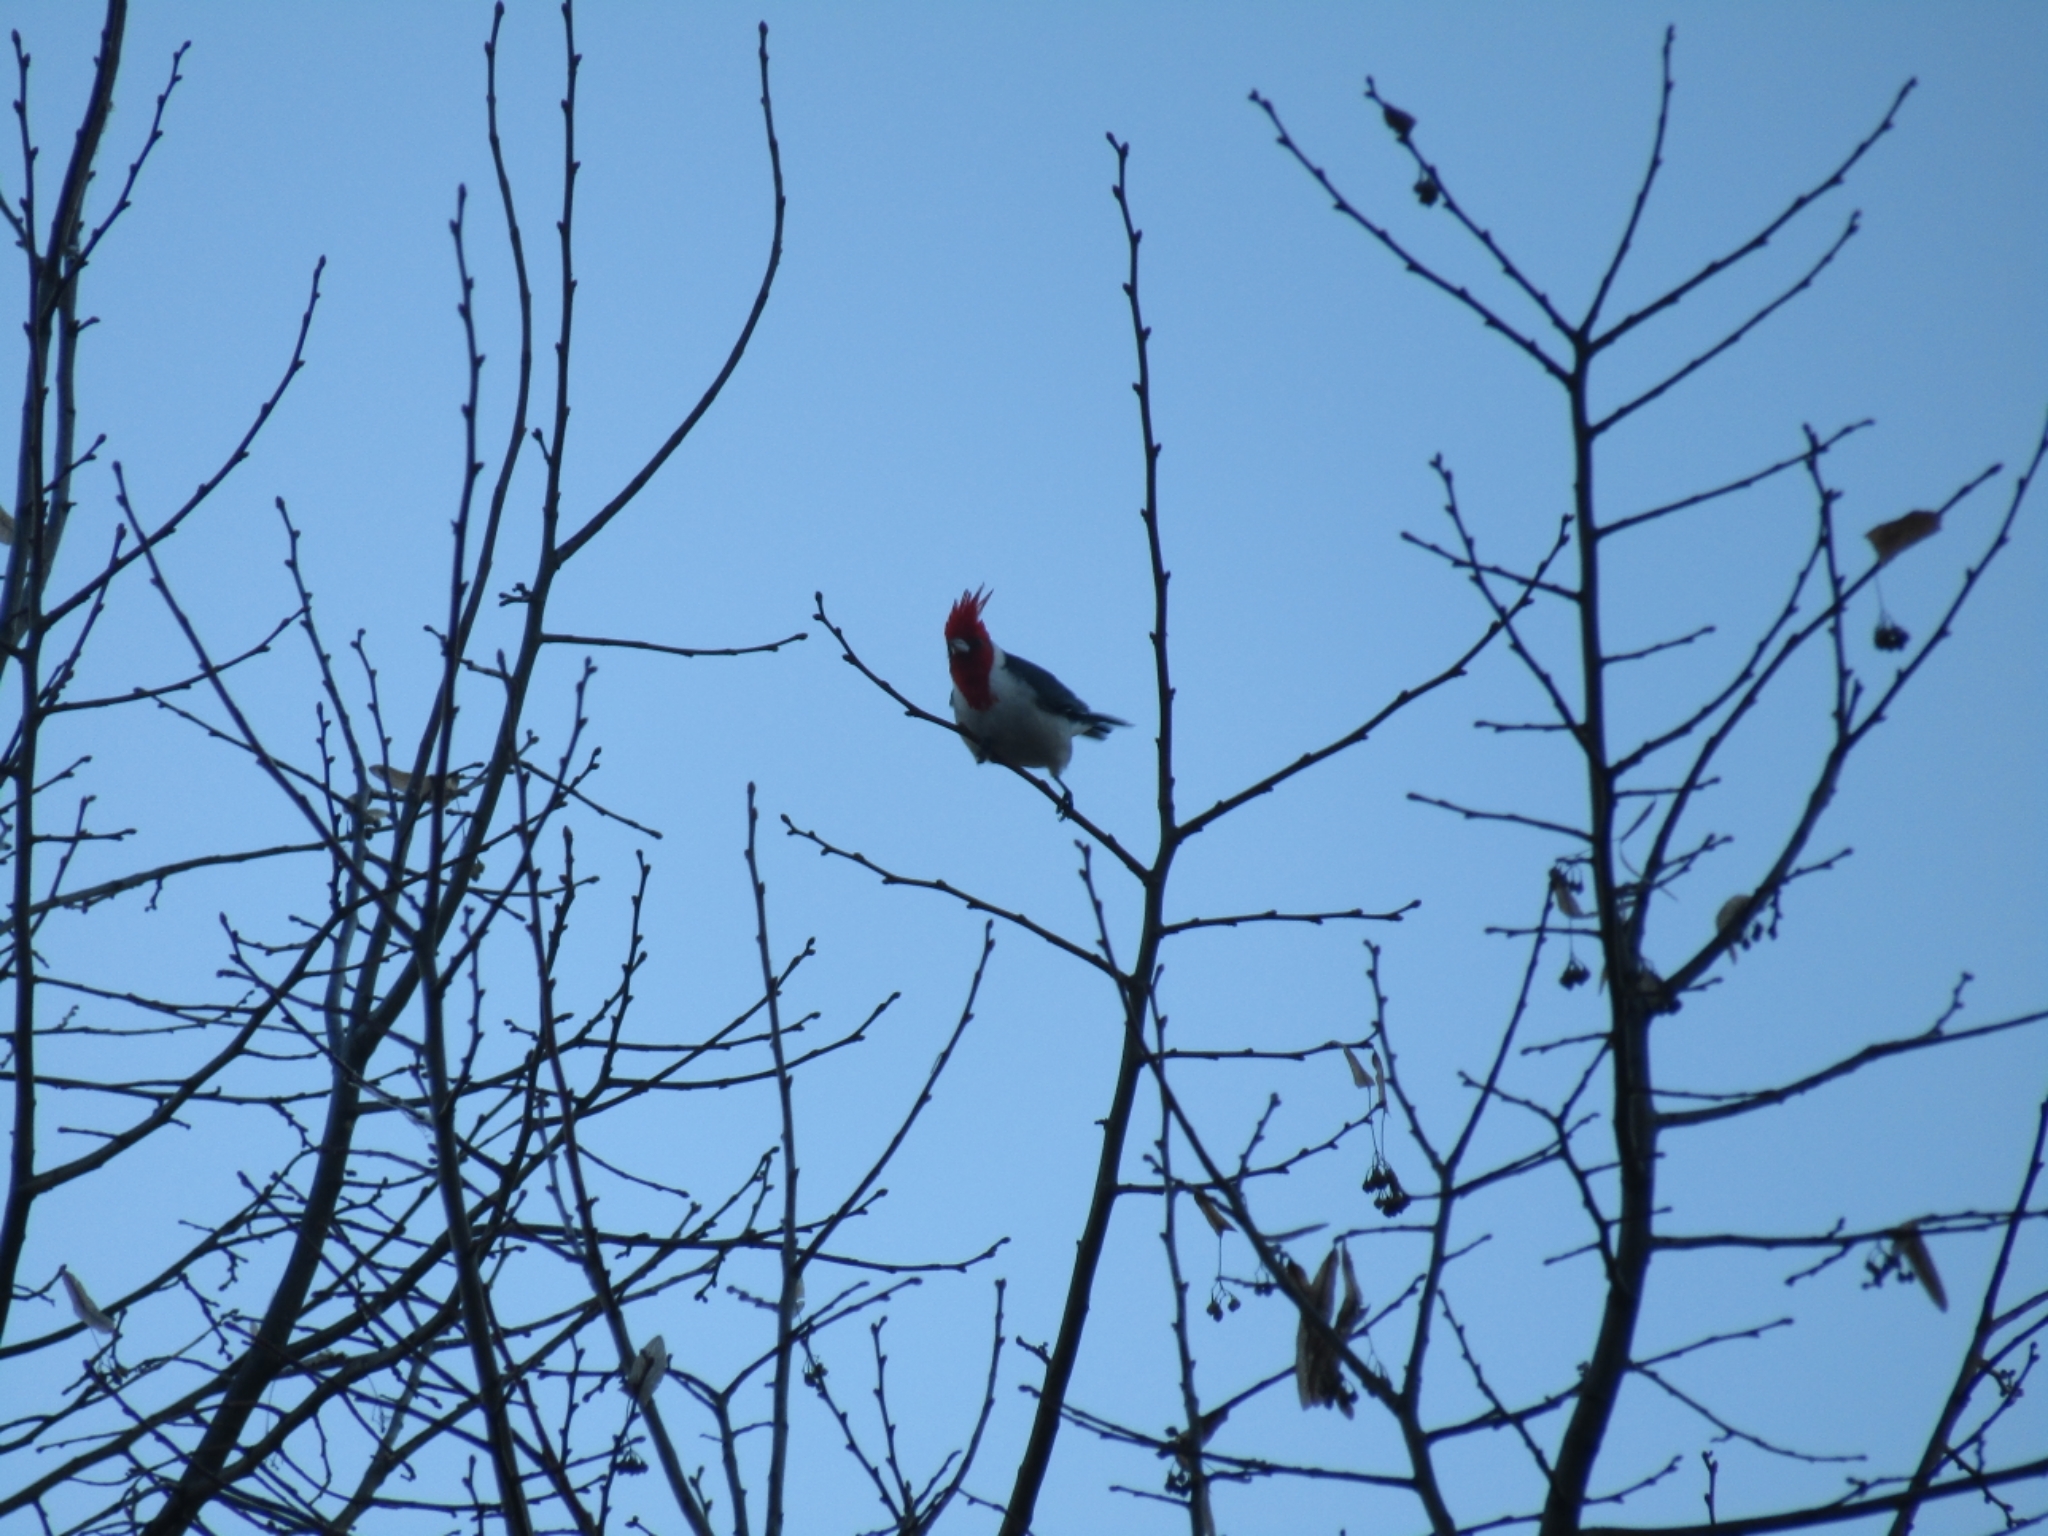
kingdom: Animalia
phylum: Chordata
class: Aves
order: Passeriformes
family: Thraupidae
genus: Paroaria
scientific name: Paroaria coronata
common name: Red-crested cardinal
